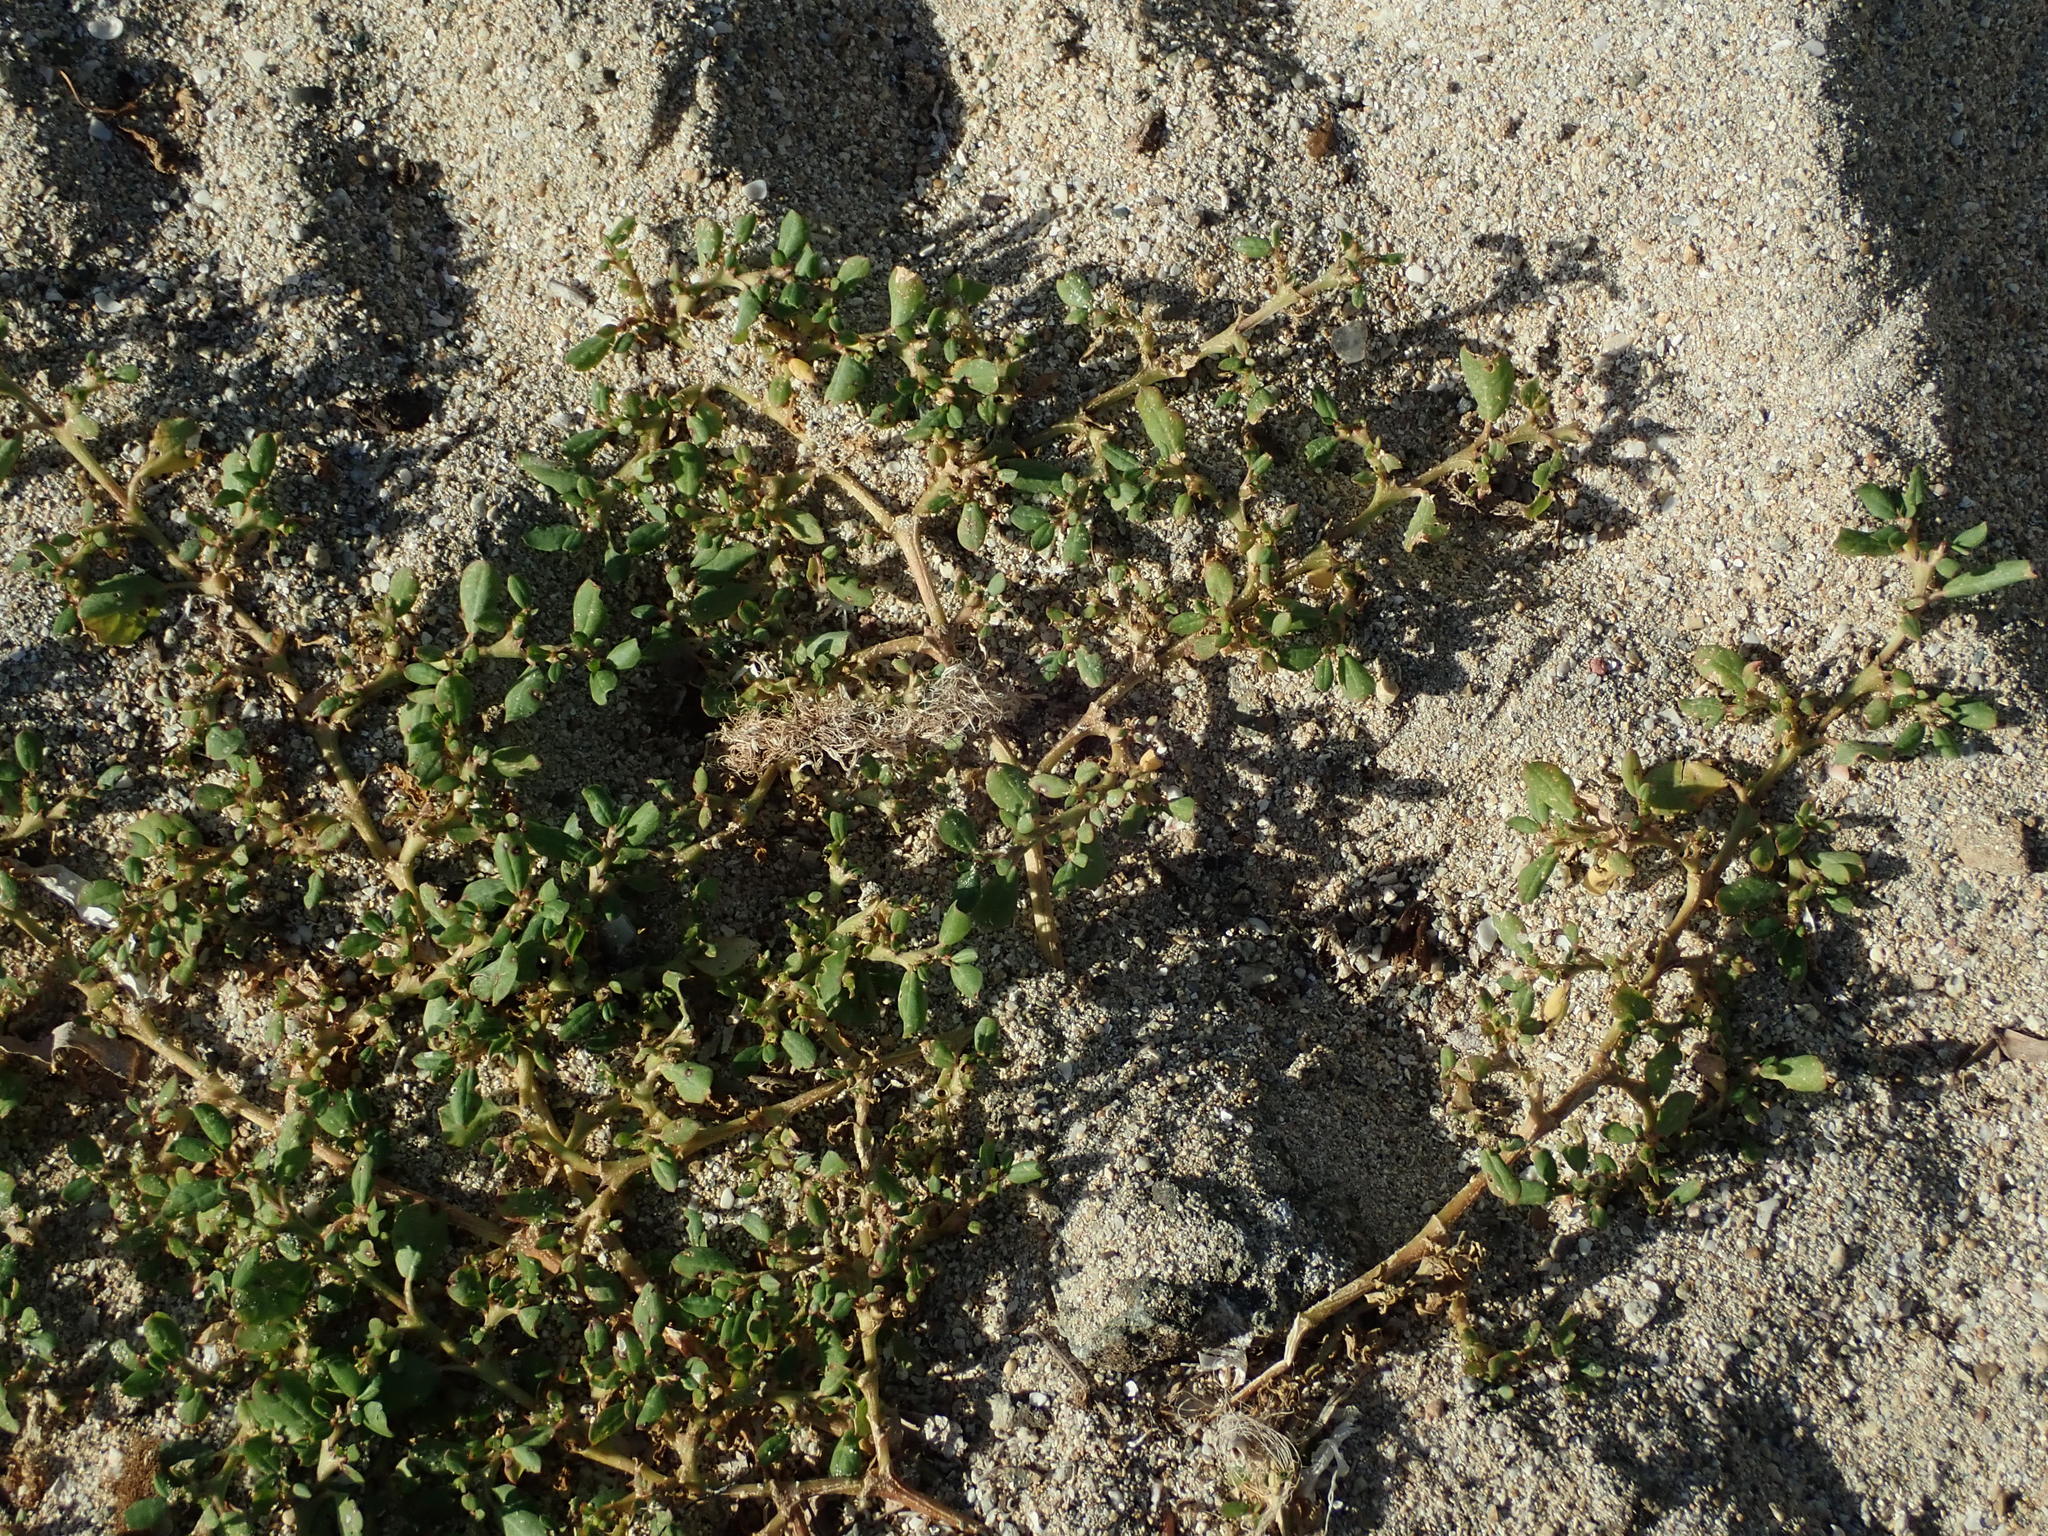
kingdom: Plantae
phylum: Tracheophyta
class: Magnoliopsida
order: Caryophyllales
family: Aizoaceae
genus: Trianthema
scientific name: Trianthema portulacastrum
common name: Desert horsepurslane
